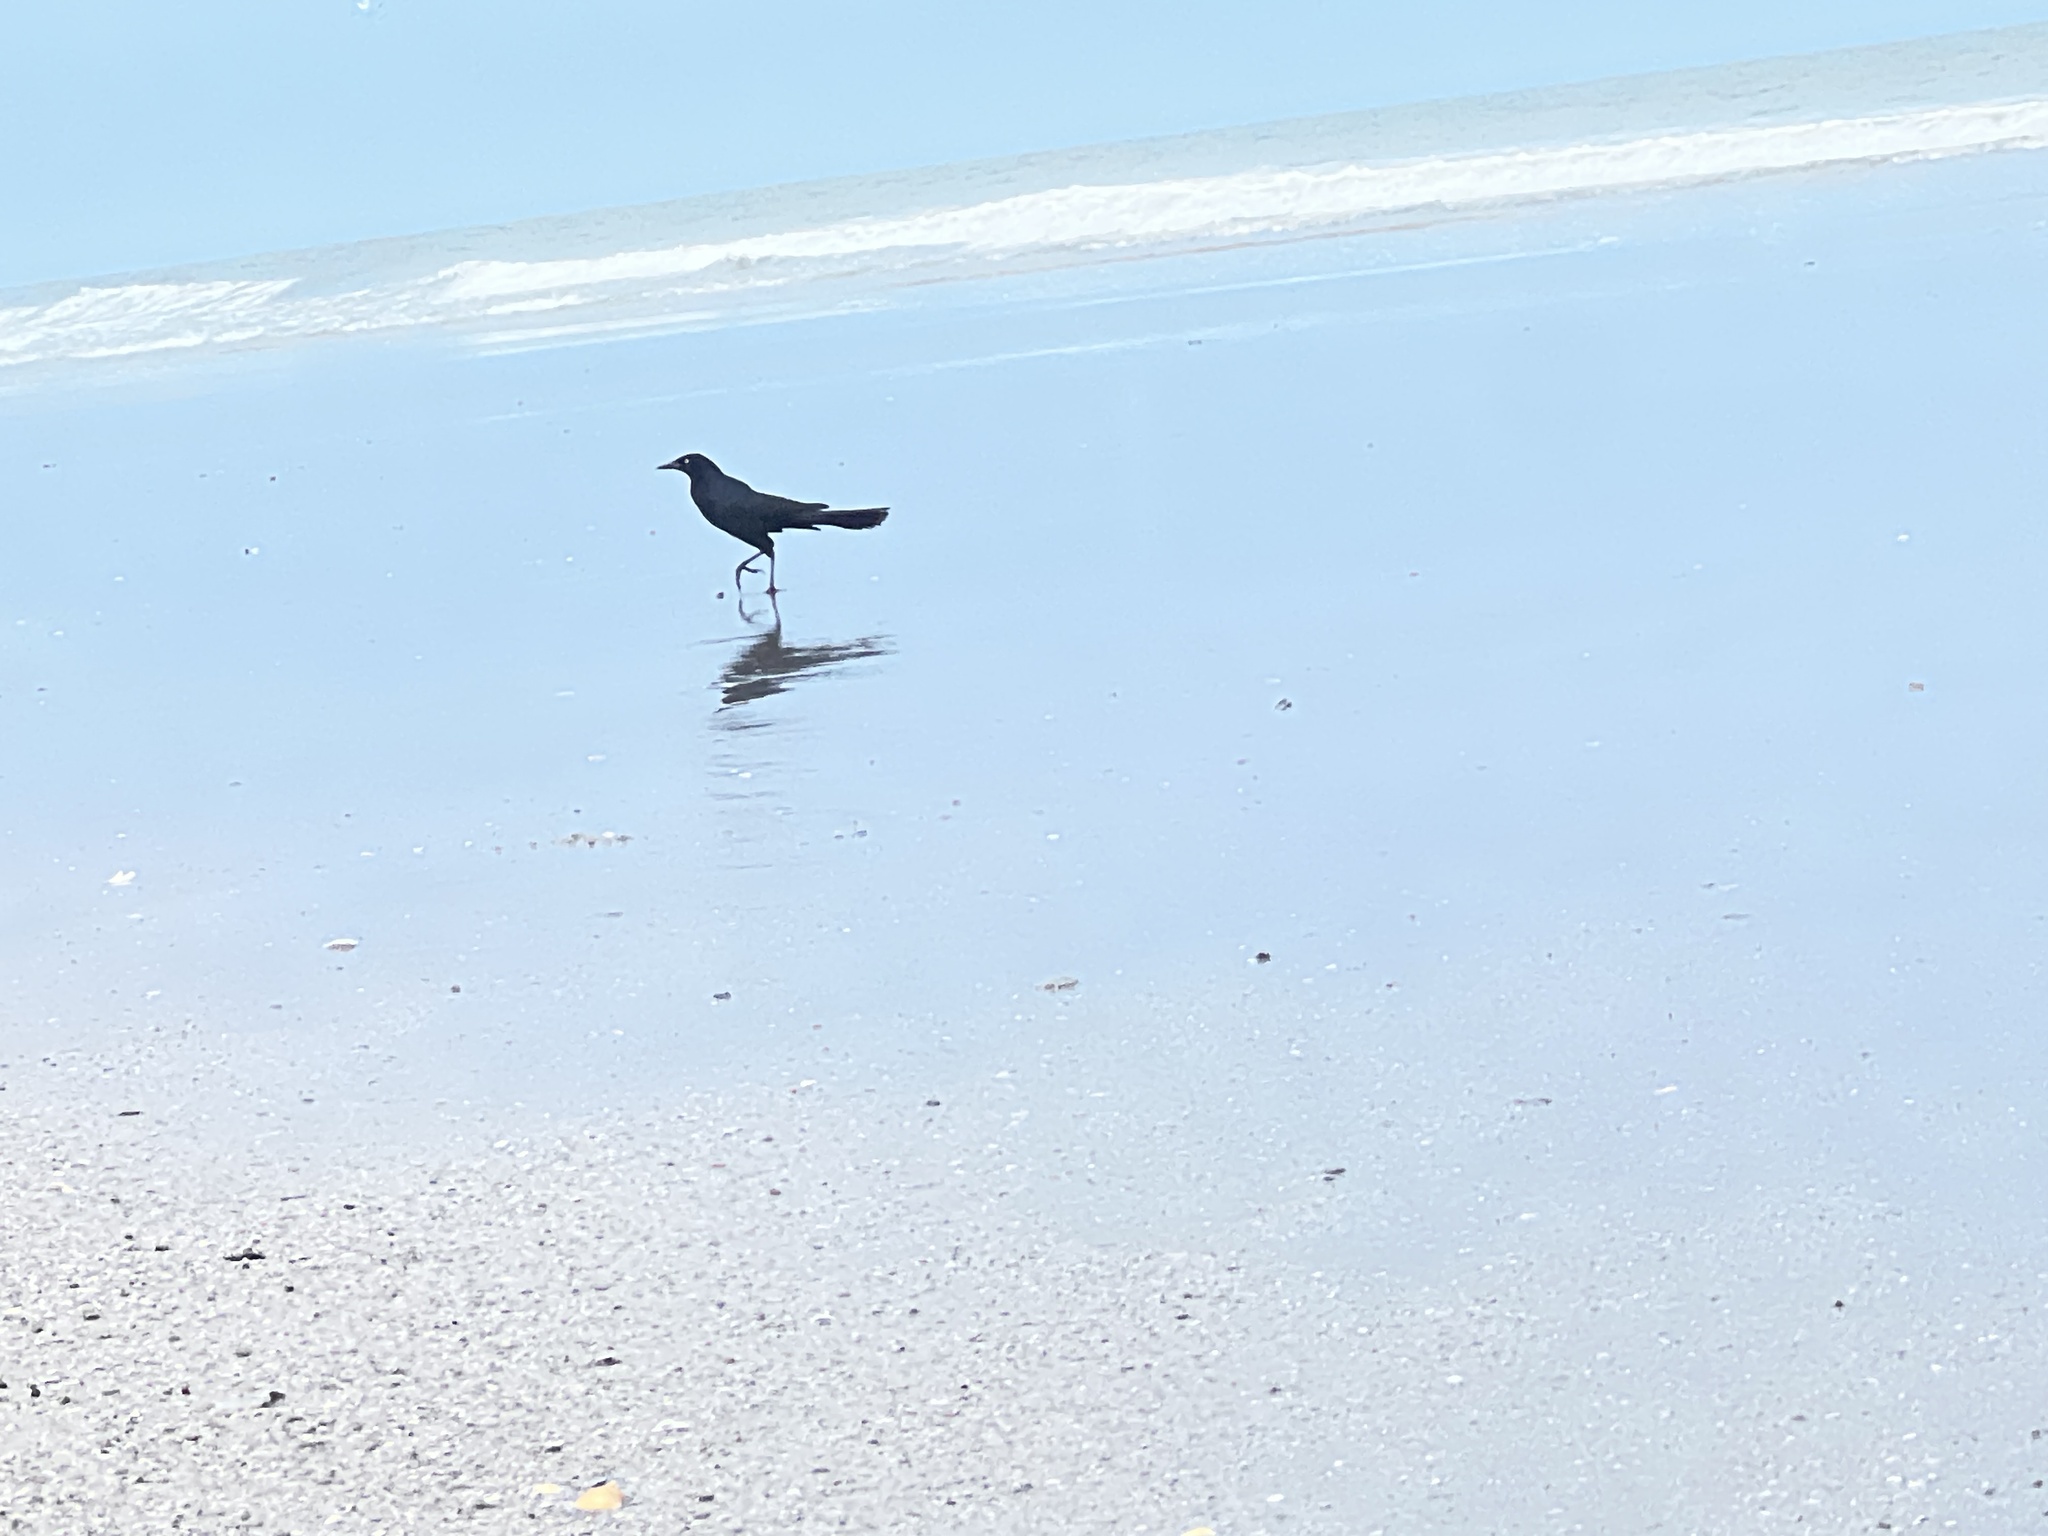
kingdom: Animalia
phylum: Chordata
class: Aves
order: Passeriformes
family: Icteridae
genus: Quiscalus
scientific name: Quiscalus major
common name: Boat-tailed grackle
